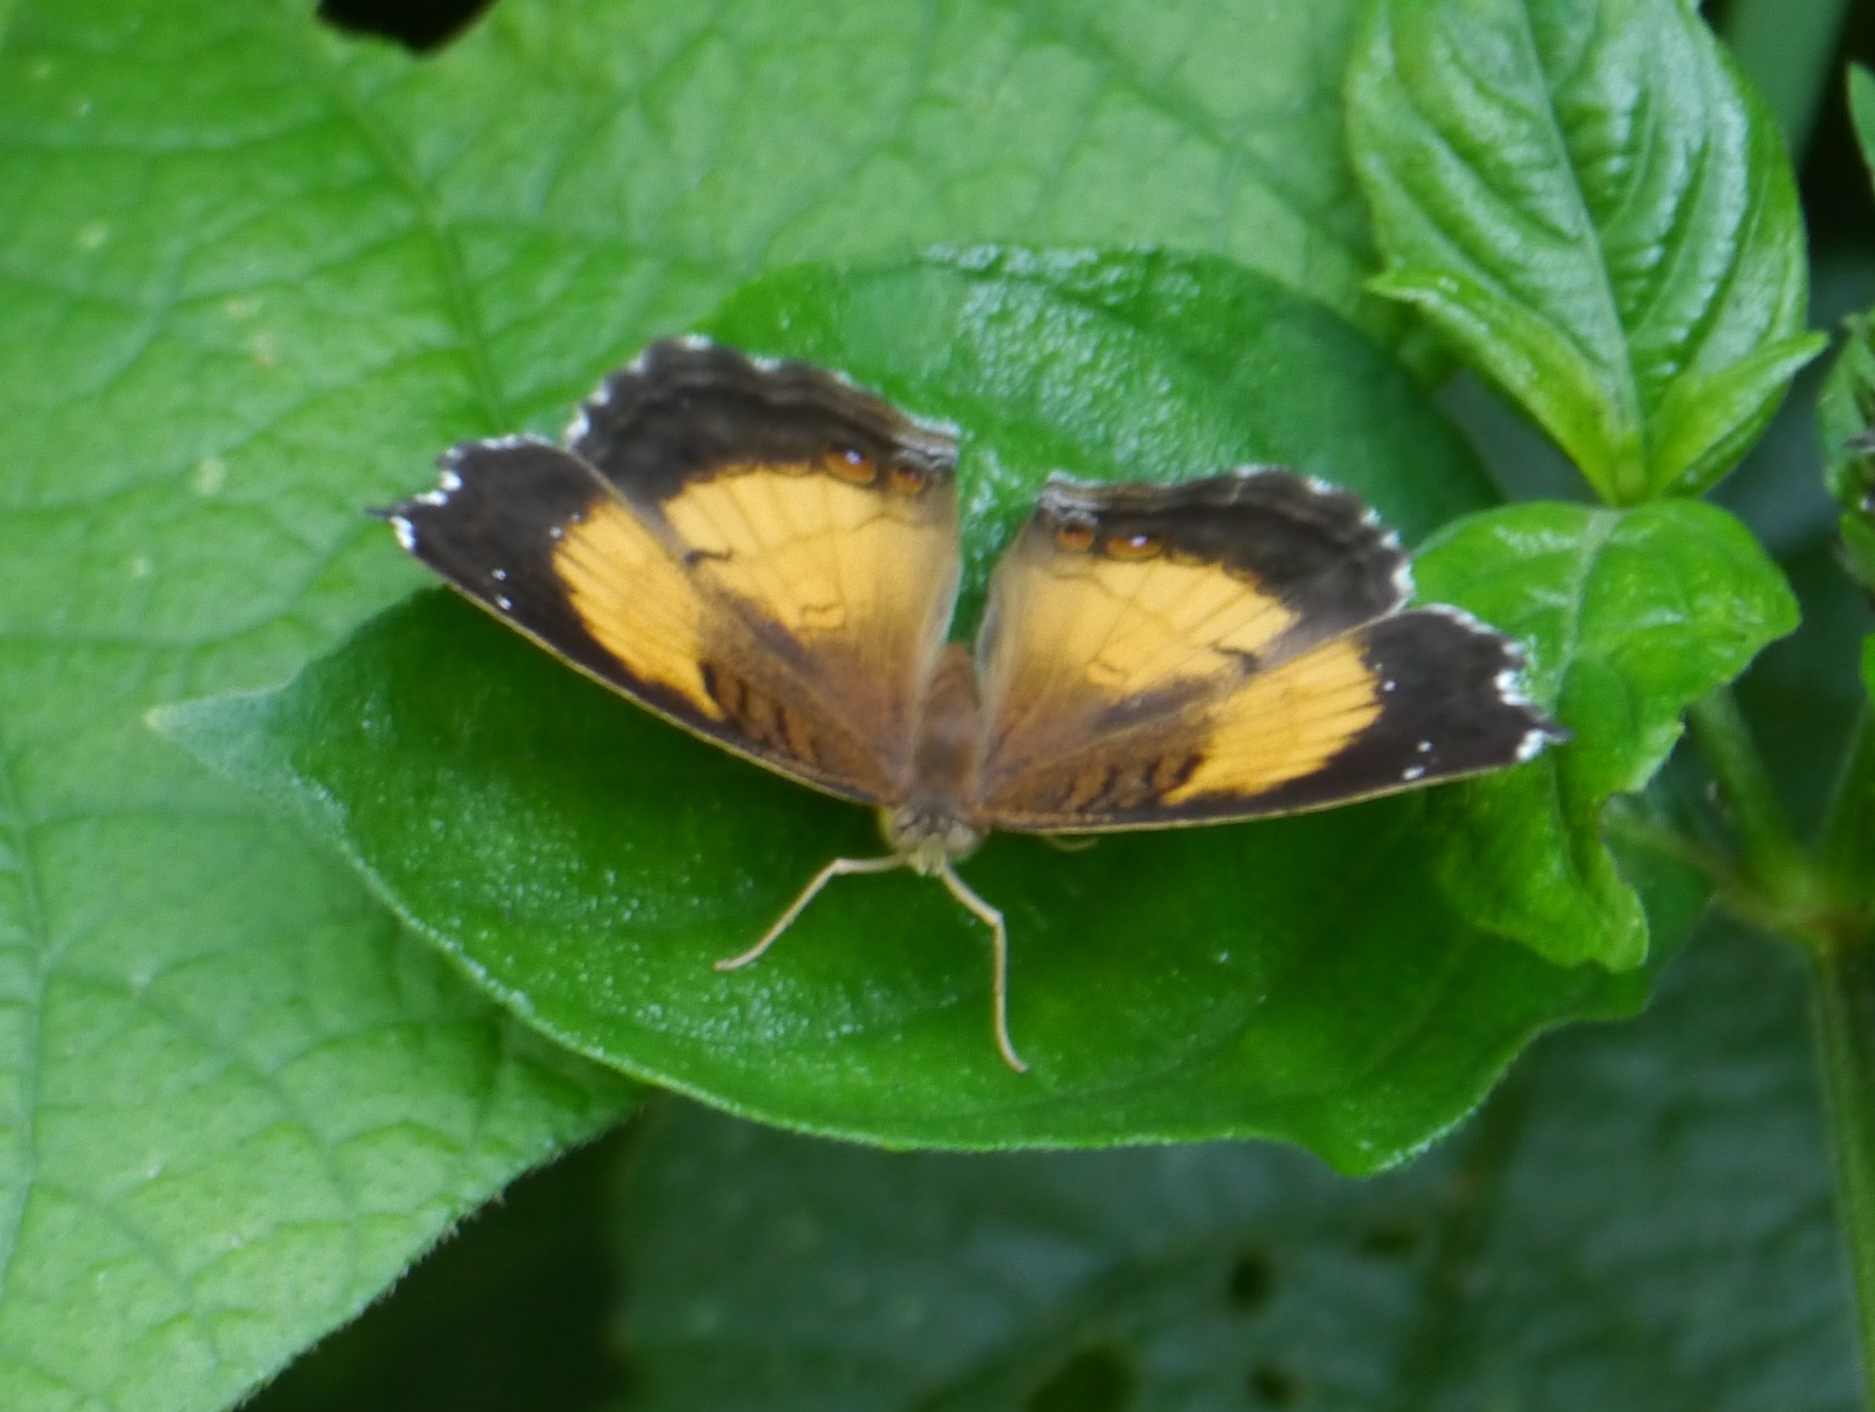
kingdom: Animalia
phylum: Arthropoda
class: Insecta
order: Lepidoptera
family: Nymphalidae
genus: Junonia
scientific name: Junonia terea
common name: Soldier pansy
